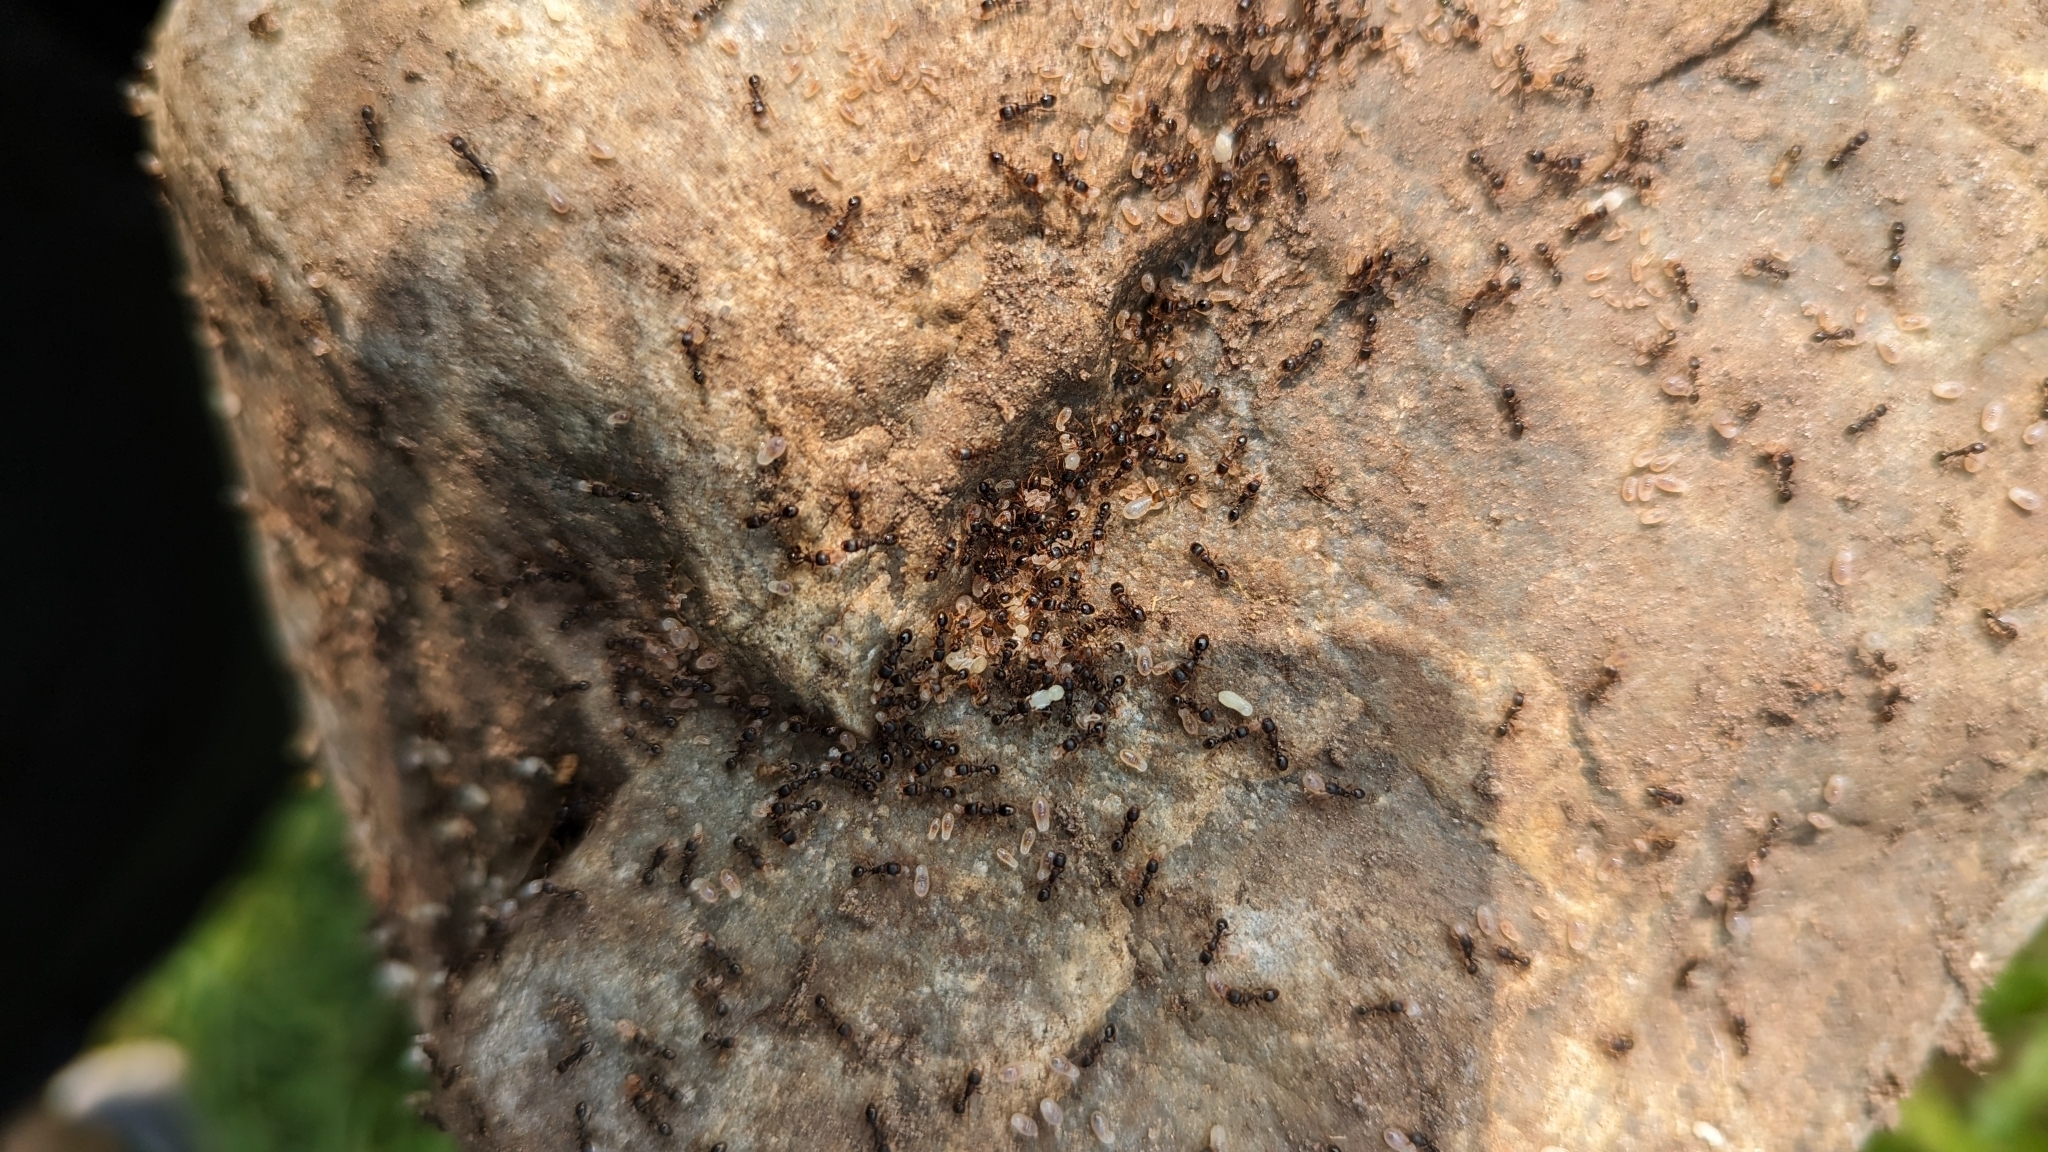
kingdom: Animalia
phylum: Arthropoda
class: Insecta
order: Hymenoptera
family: Formicidae
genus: Tetramorium
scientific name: Tetramorium immigrans
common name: Pavement ant
